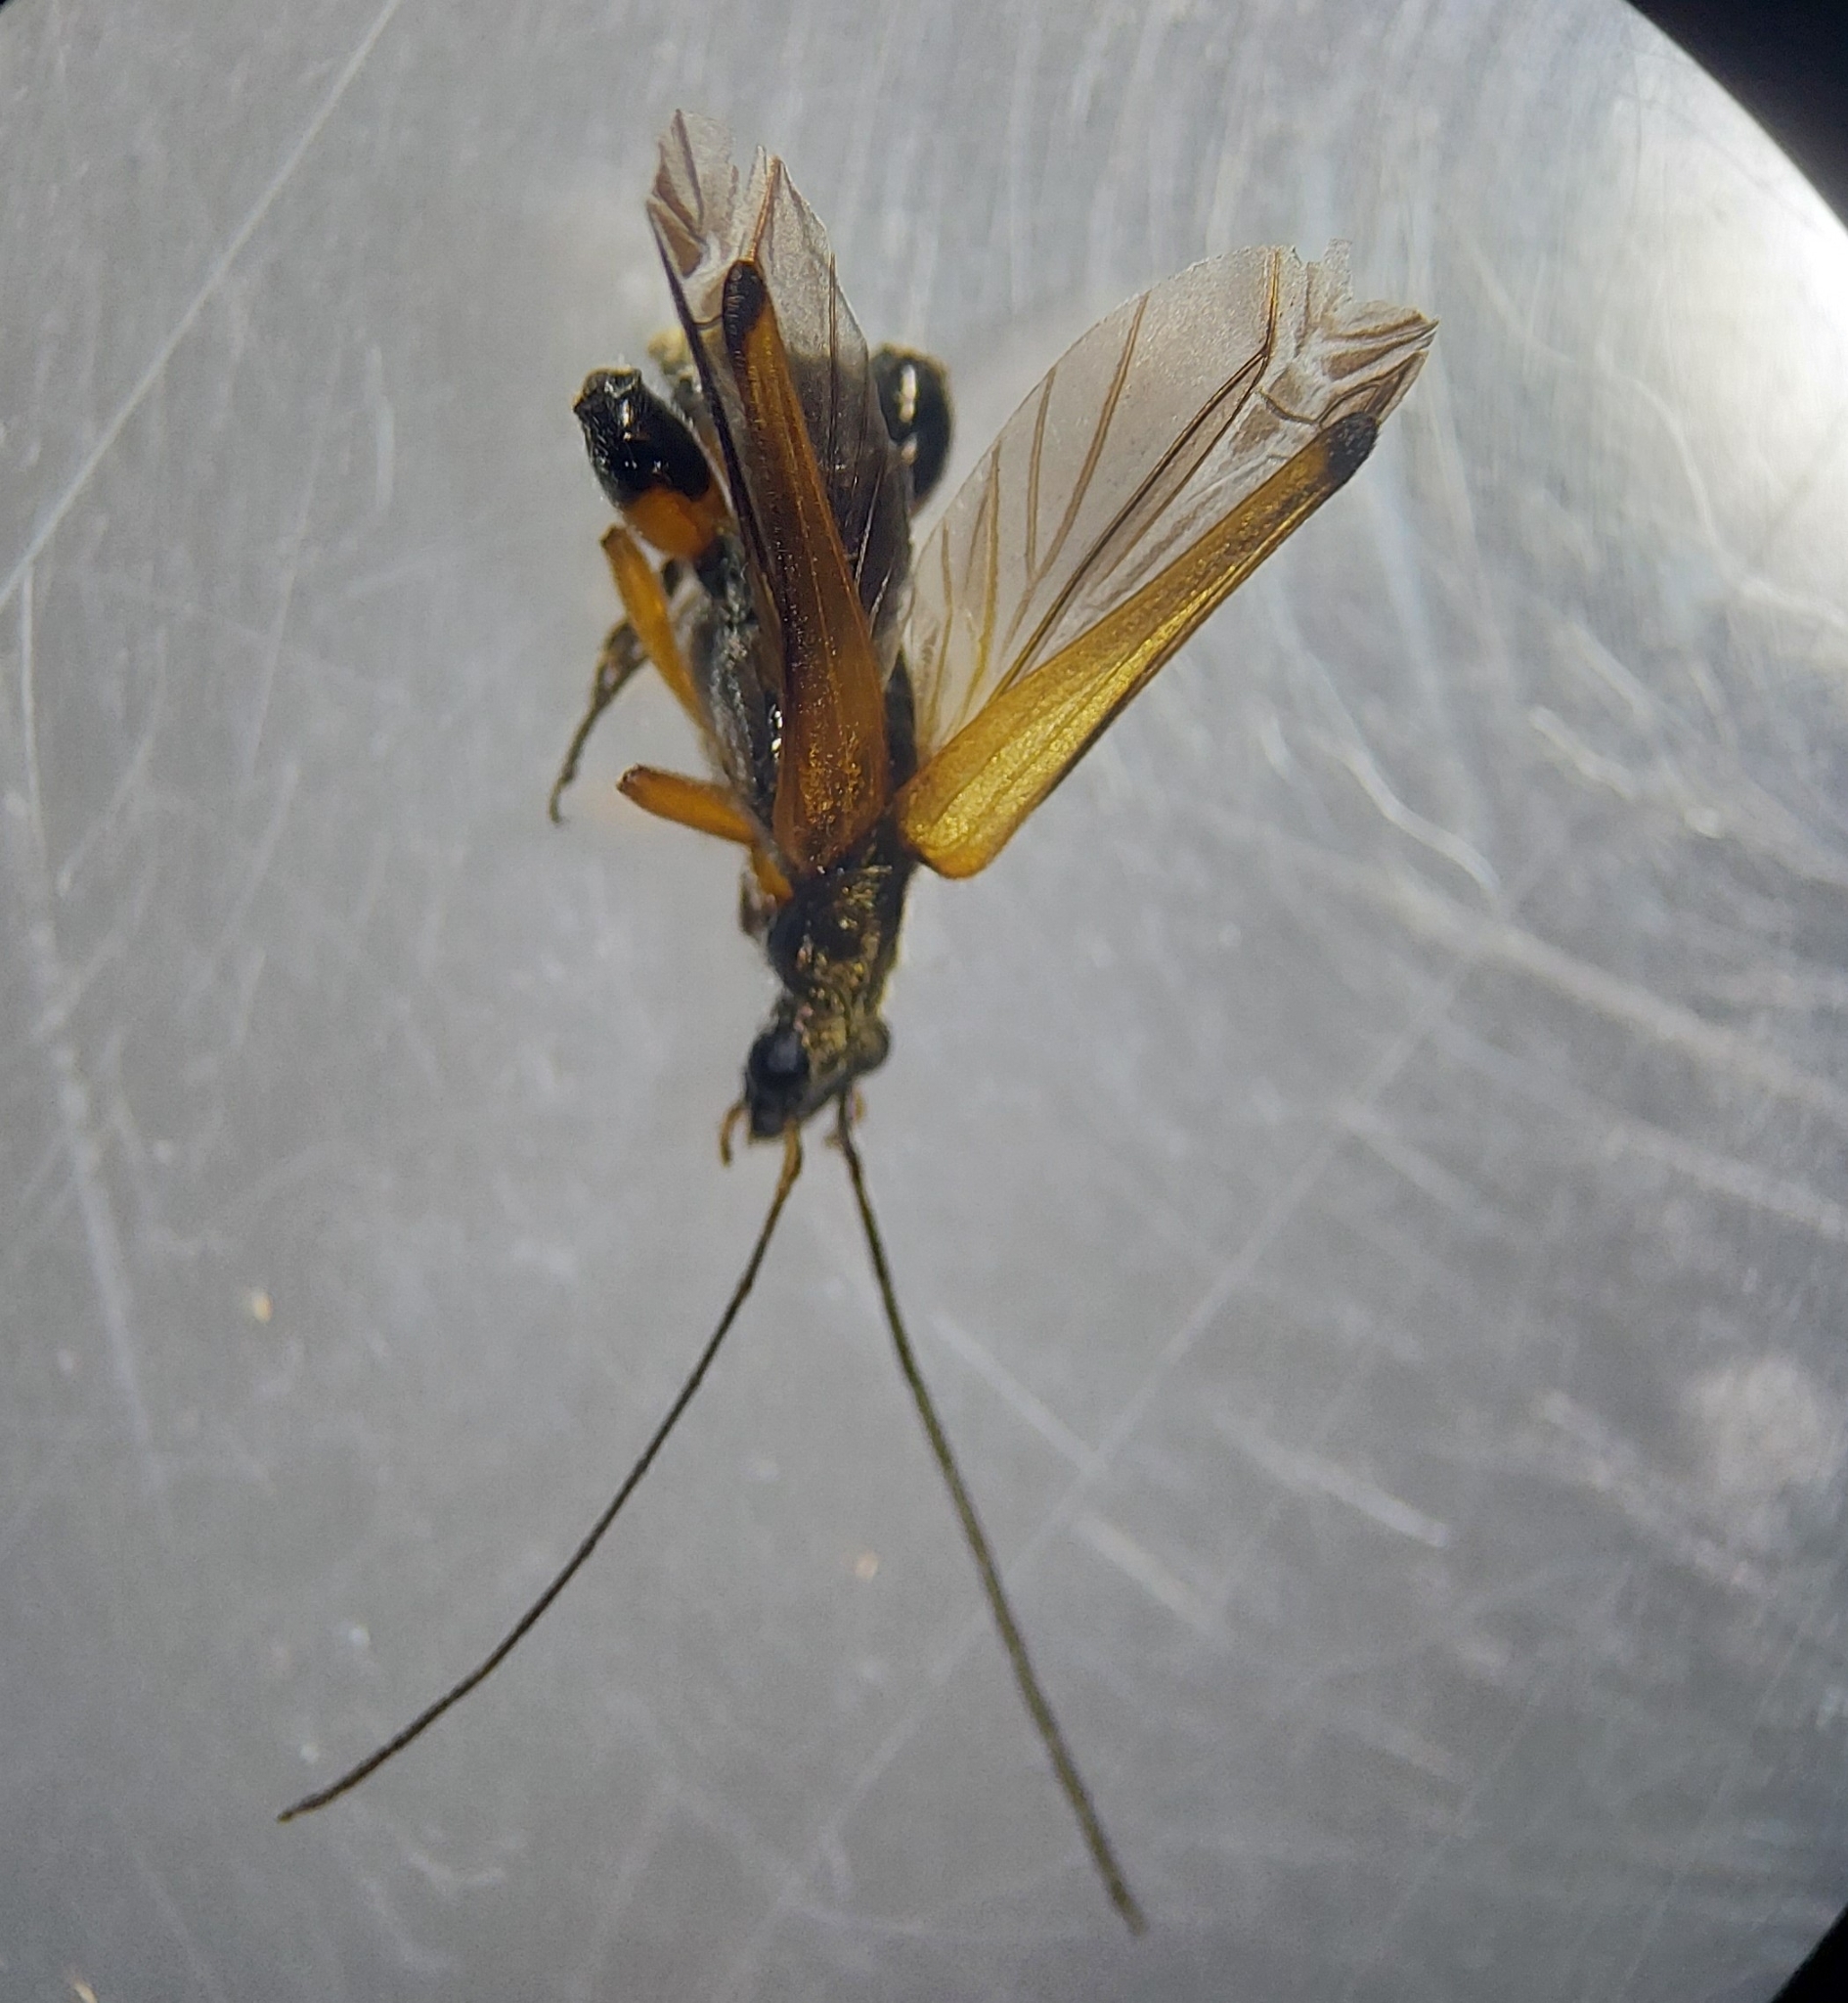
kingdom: Animalia
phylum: Arthropoda
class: Insecta
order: Coleoptera
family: Oedemeridae
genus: Oedemera
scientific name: Oedemera podagrariae
